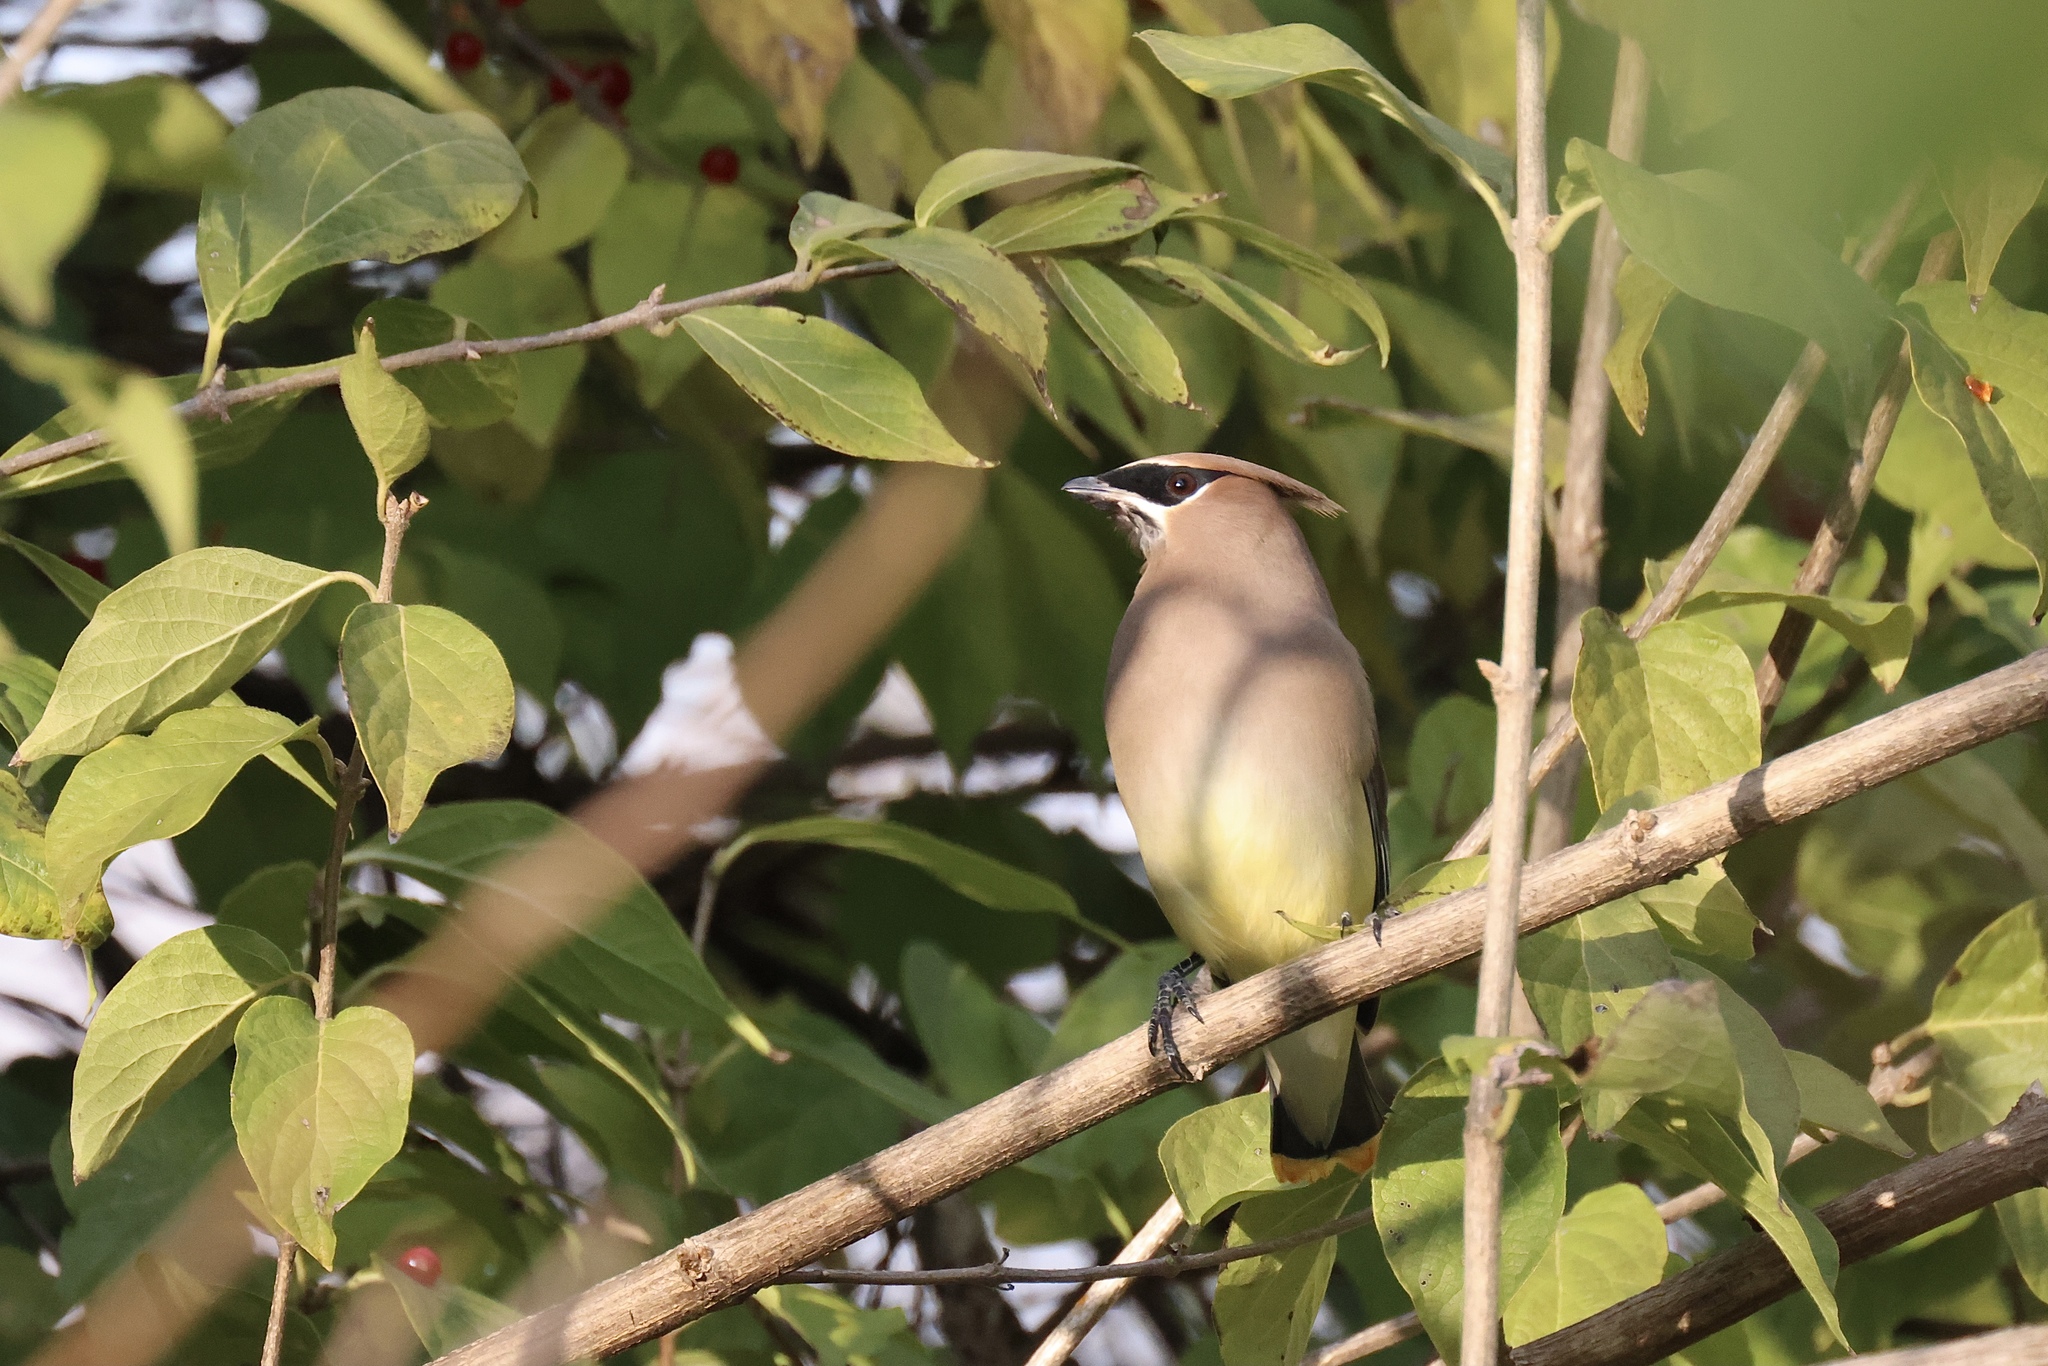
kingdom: Animalia
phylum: Chordata
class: Aves
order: Passeriformes
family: Bombycillidae
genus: Bombycilla
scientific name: Bombycilla cedrorum
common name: Cedar waxwing
